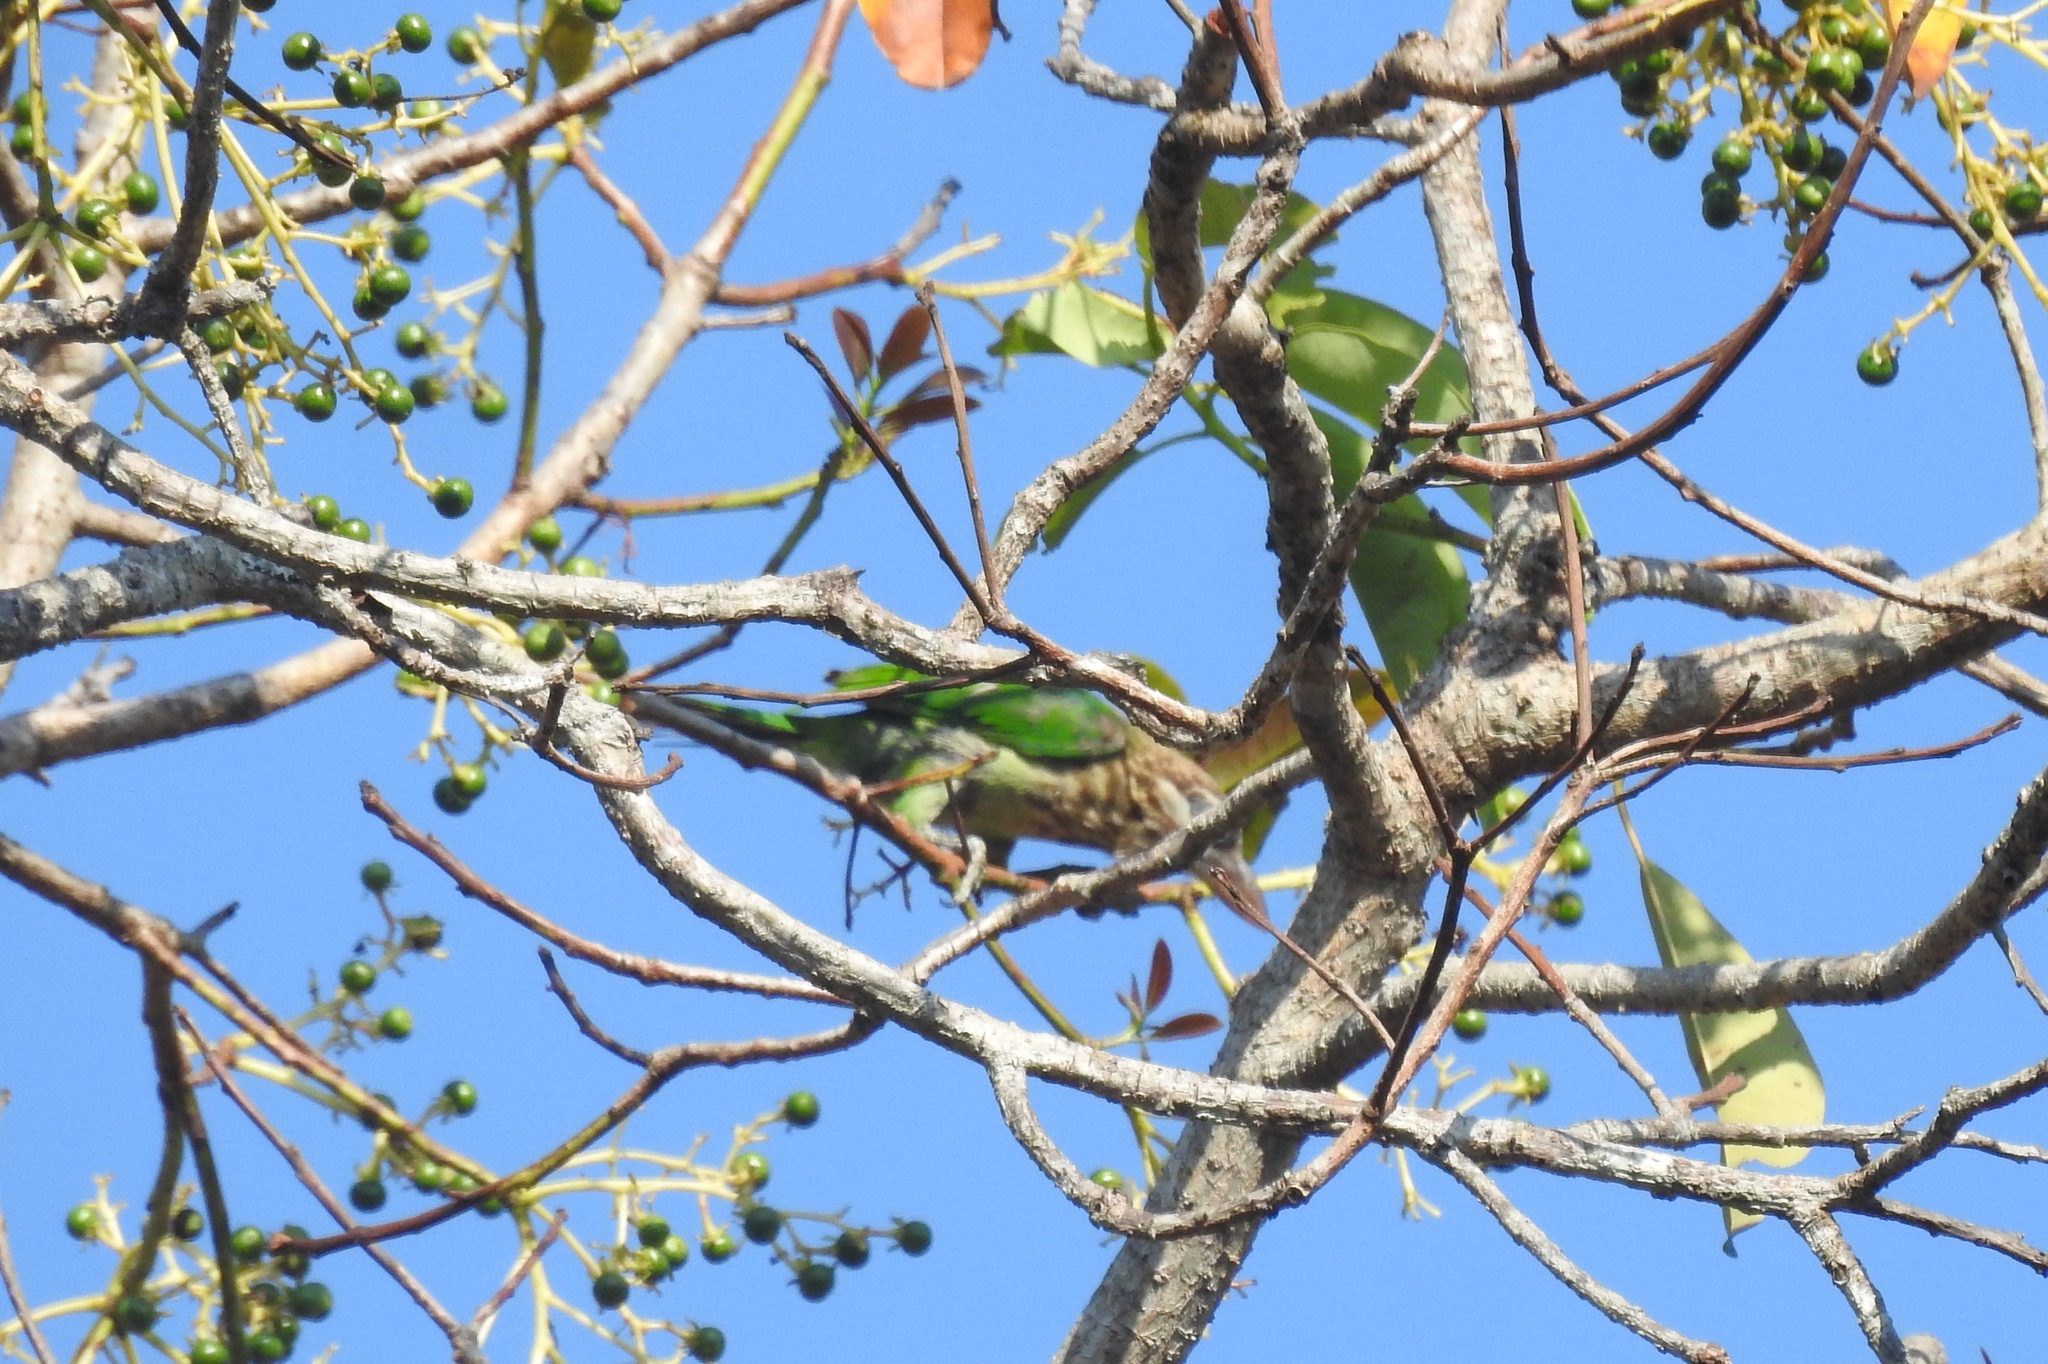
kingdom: Animalia
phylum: Chordata
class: Aves
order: Piciformes
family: Megalaimidae
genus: Psilopogon
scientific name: Psilopogon viridis
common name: White-cheeked barbet
